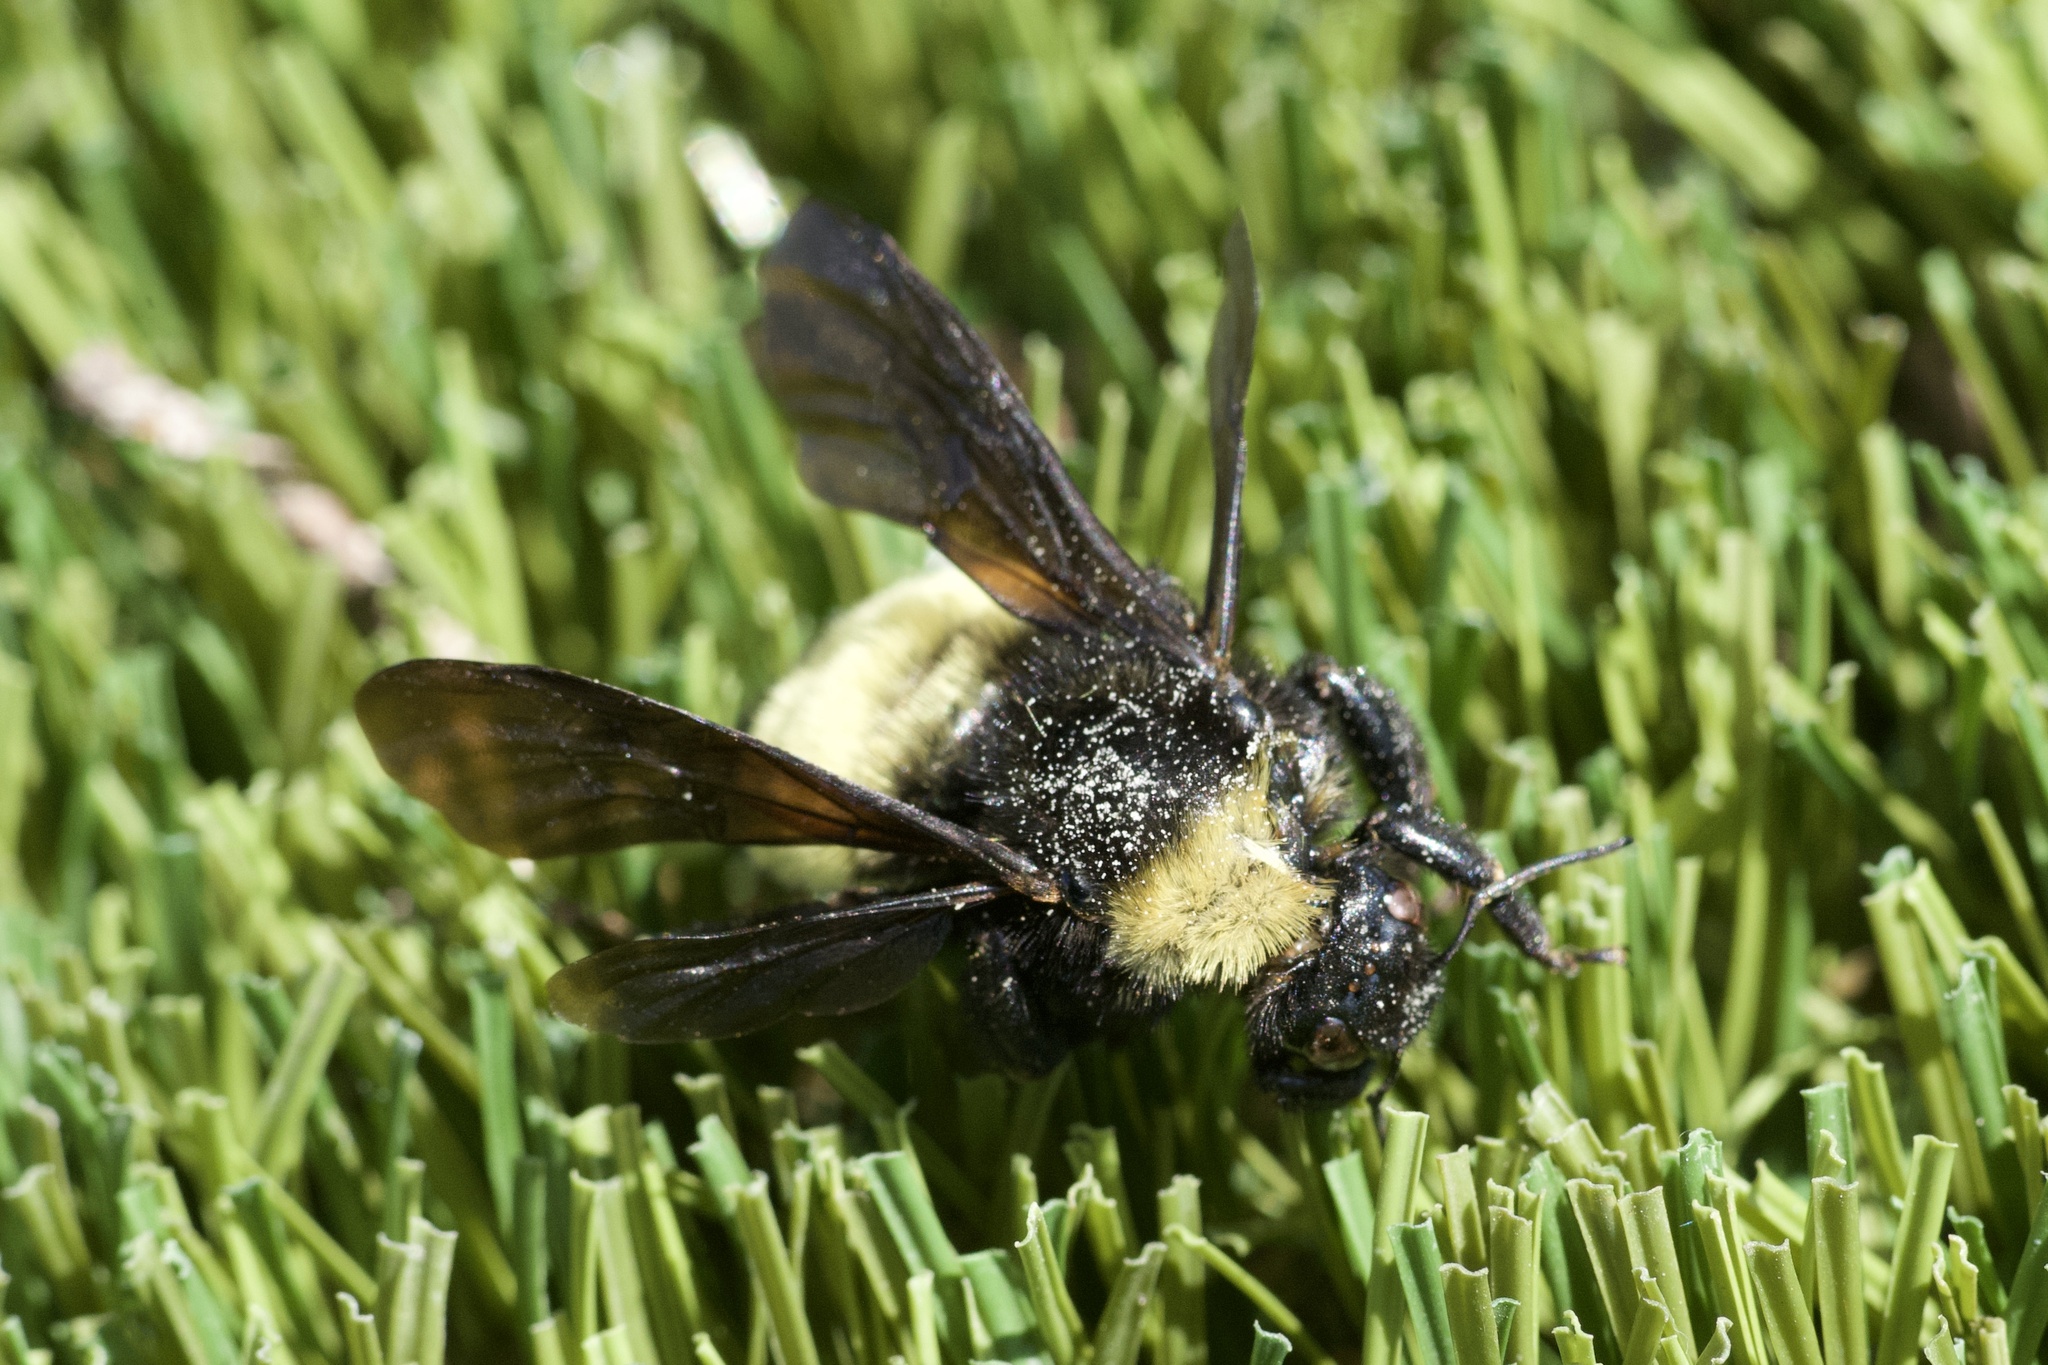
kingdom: Animalia
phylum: Arthropoda
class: Insecta
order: Hymenoptera
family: Apidae
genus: Bombus
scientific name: Bombus pensylvanicus
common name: Bumble bee
